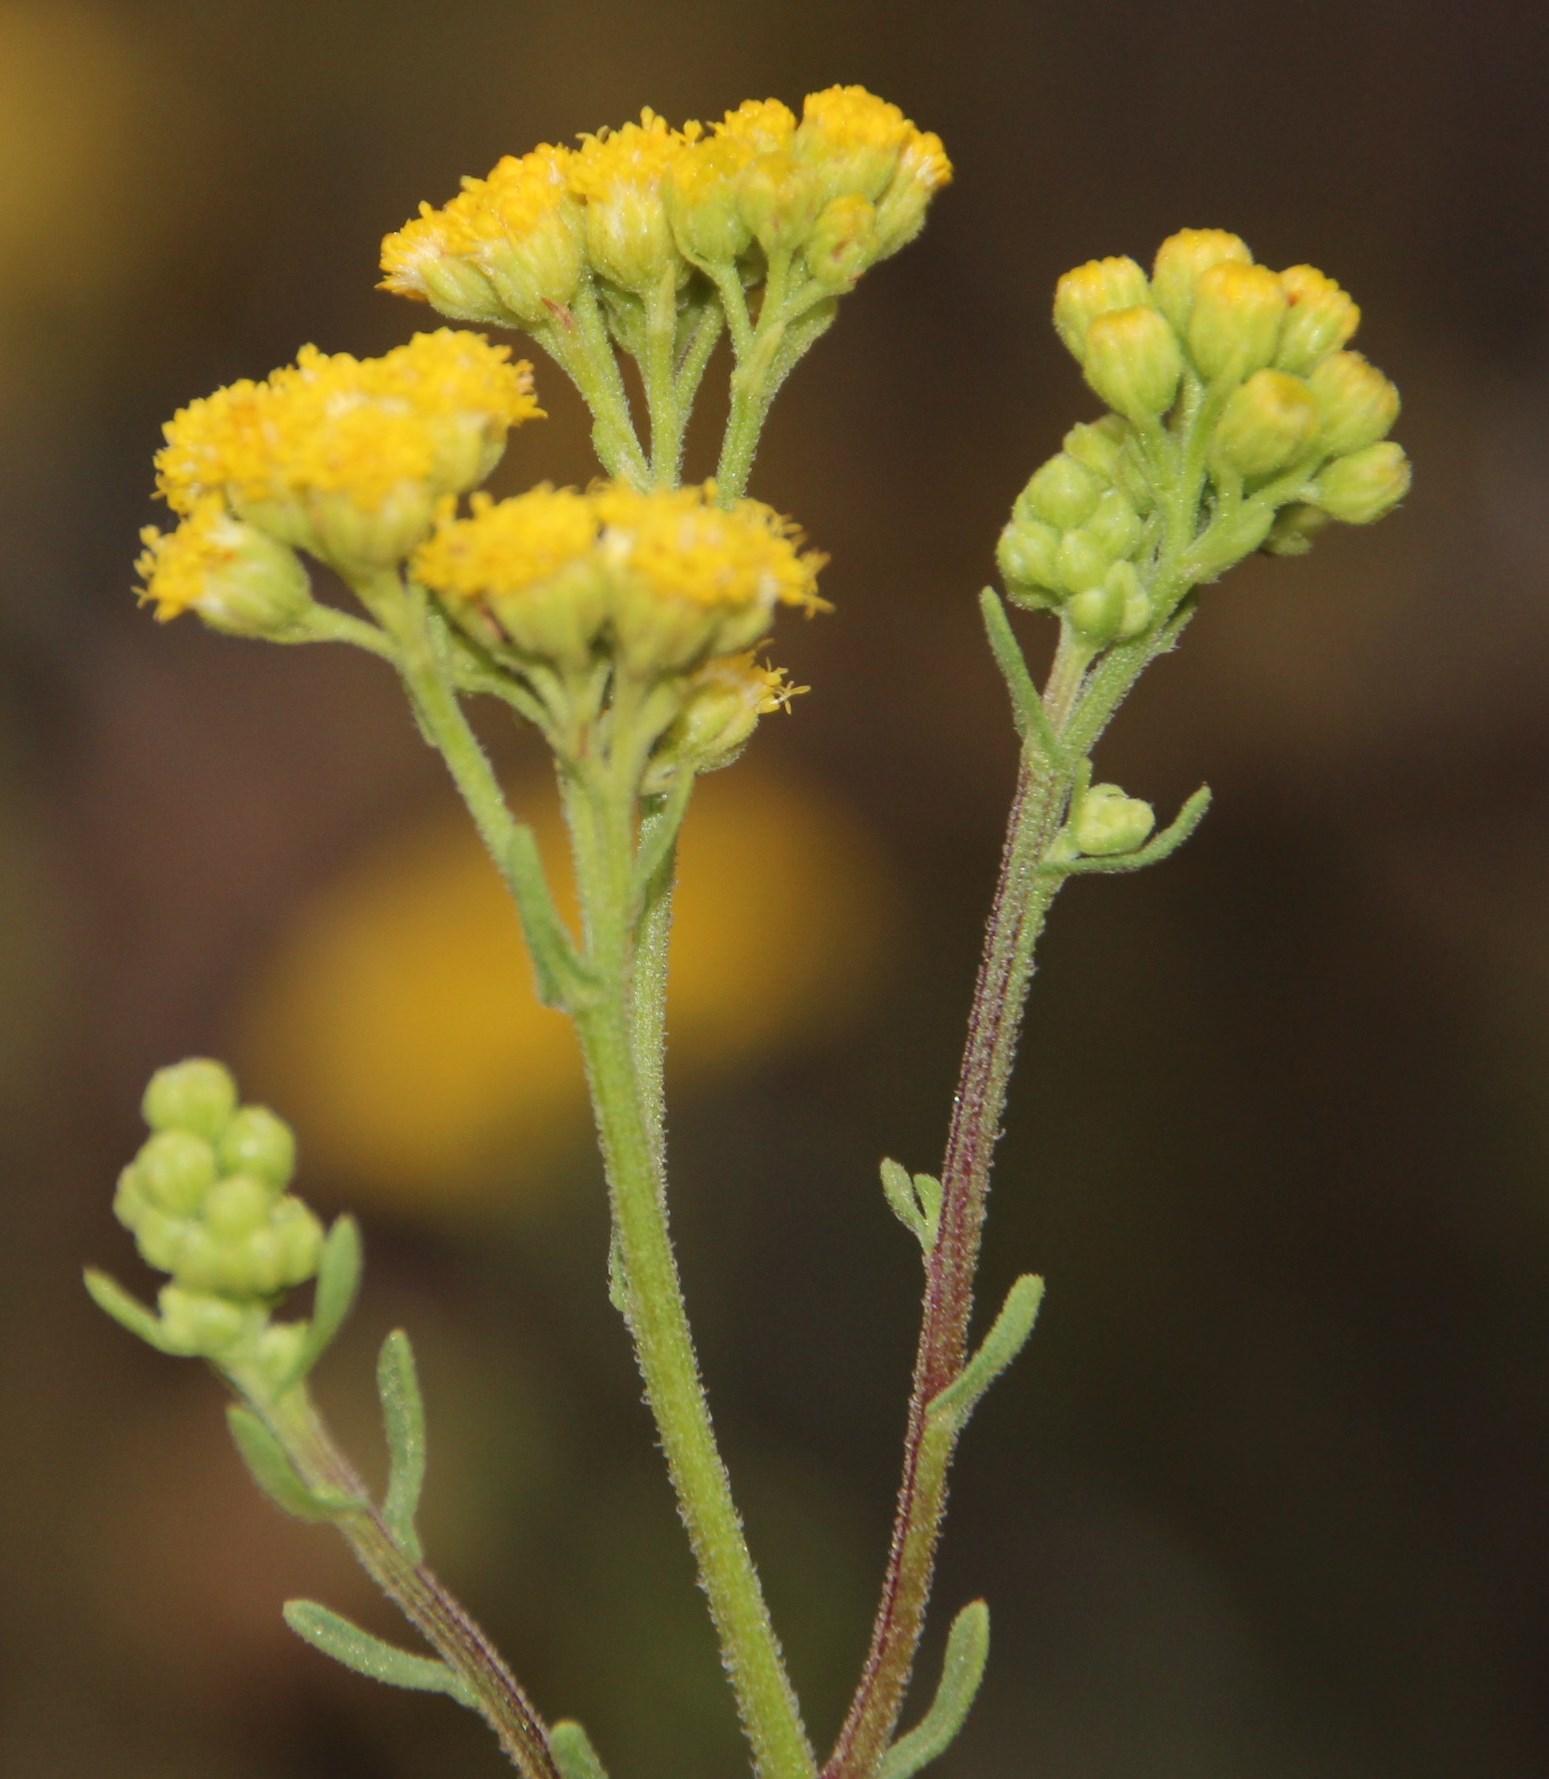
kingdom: Plantae
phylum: Tracheophyta
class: Magnoliopsida
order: Asterales
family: Asteraceae
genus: Nidorella
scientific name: Nidorella foetida
